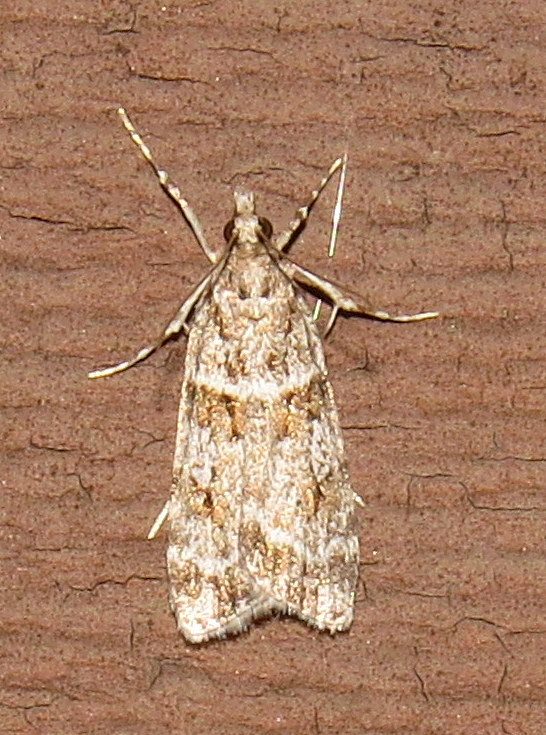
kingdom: Animalia
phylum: Arthropoda
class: Insecta
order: Lepidoptera
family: Crambidae
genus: Scoparia
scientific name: Scoparia biplagialis
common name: Double-striped scoparia moth
